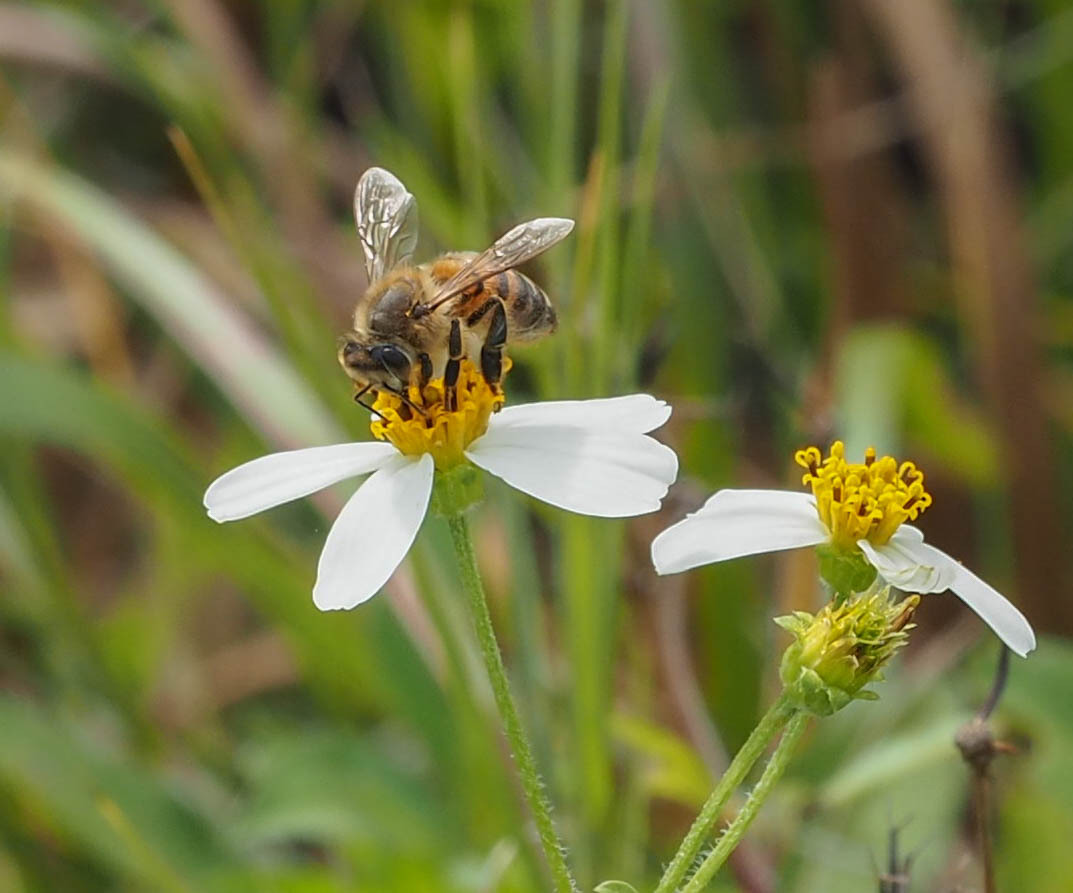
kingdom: Animalia
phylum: Arthropoda
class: Insecta
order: Hymenoptera
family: Apidae
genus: Apis
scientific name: Apis mellifera
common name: Honey bee
